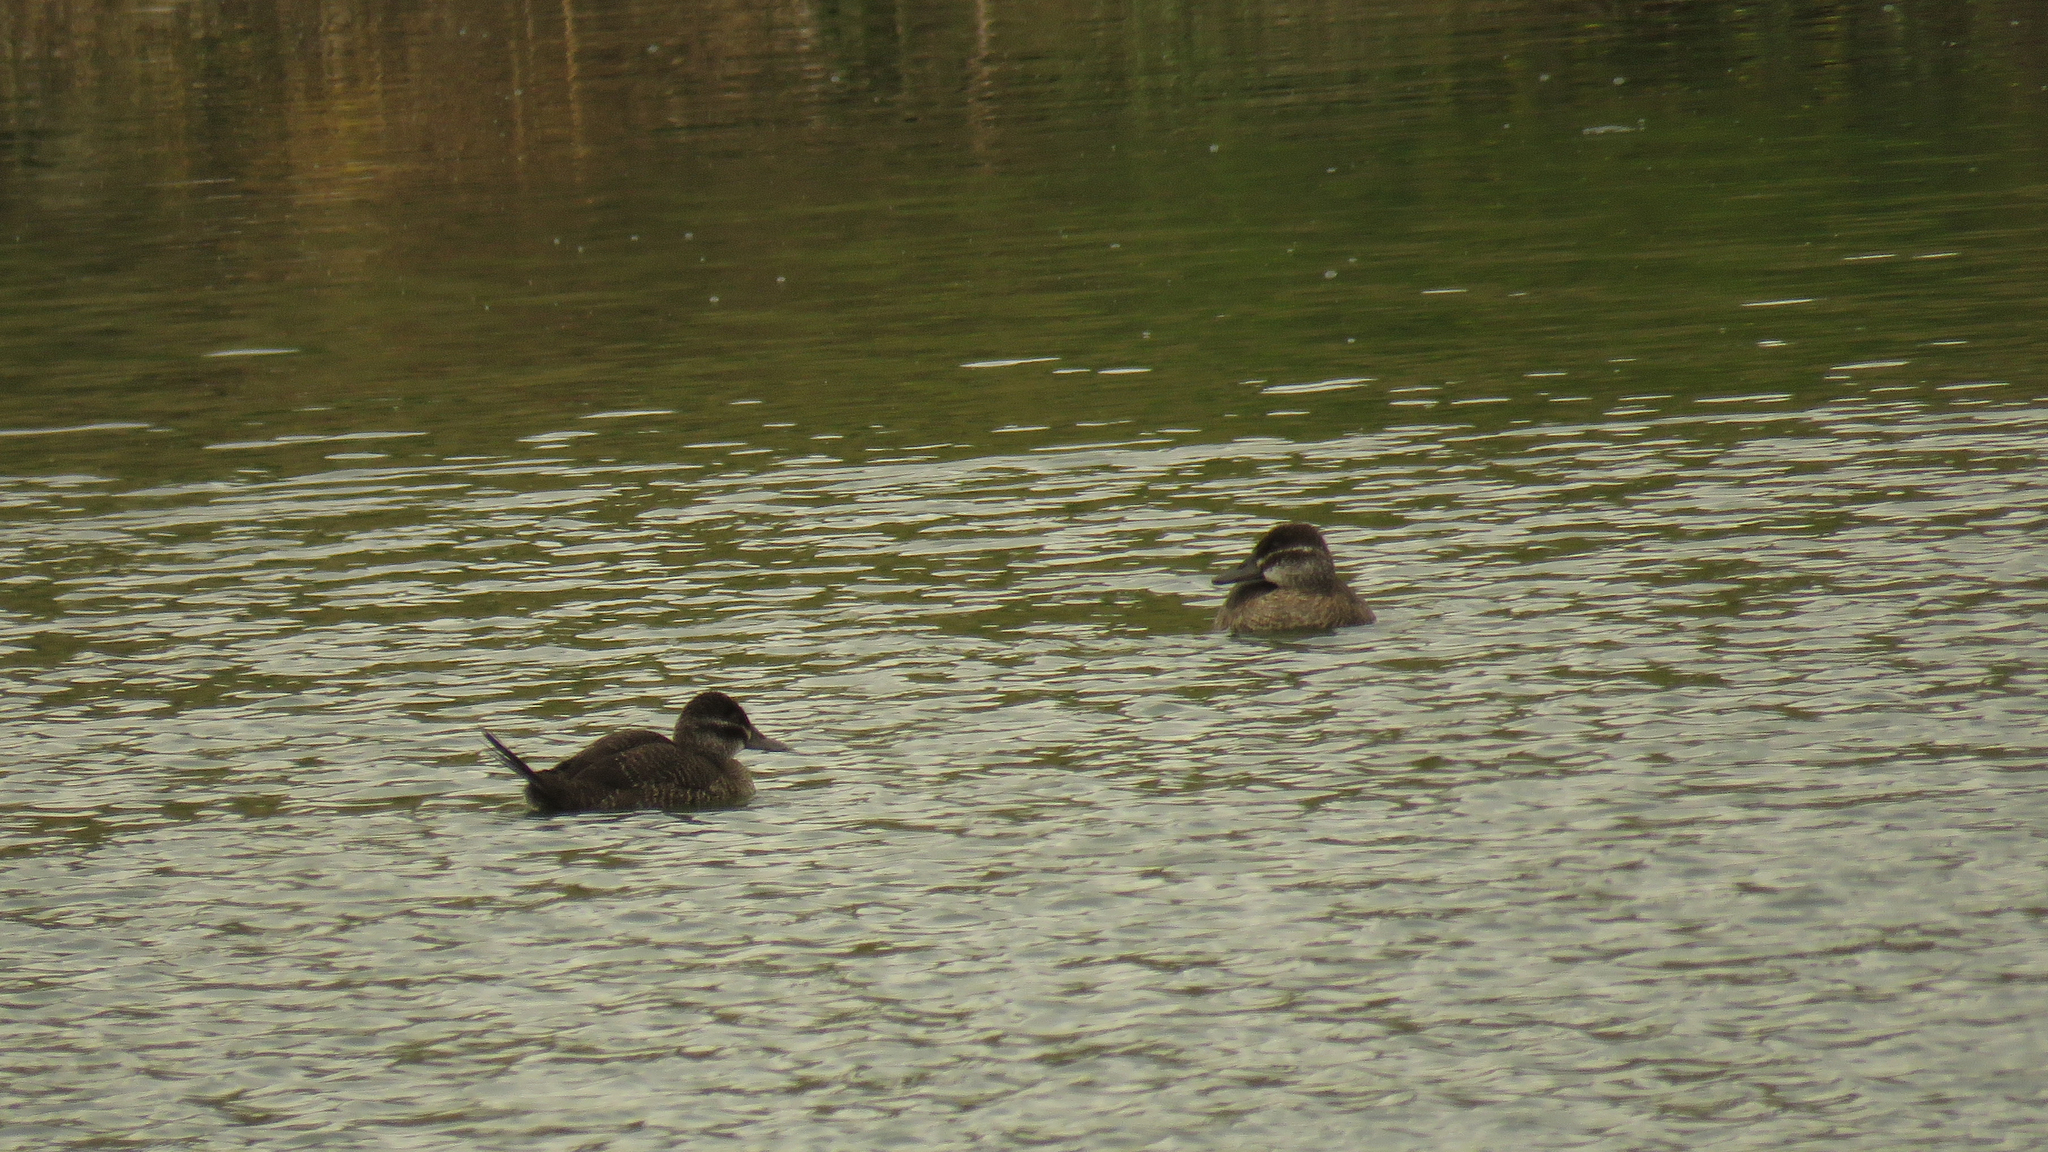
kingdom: Animalia
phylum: Chordata
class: Aves
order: Anseriformes
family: Anatidae
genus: Oxyura
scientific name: Oxyura vittata
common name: Lake duck
